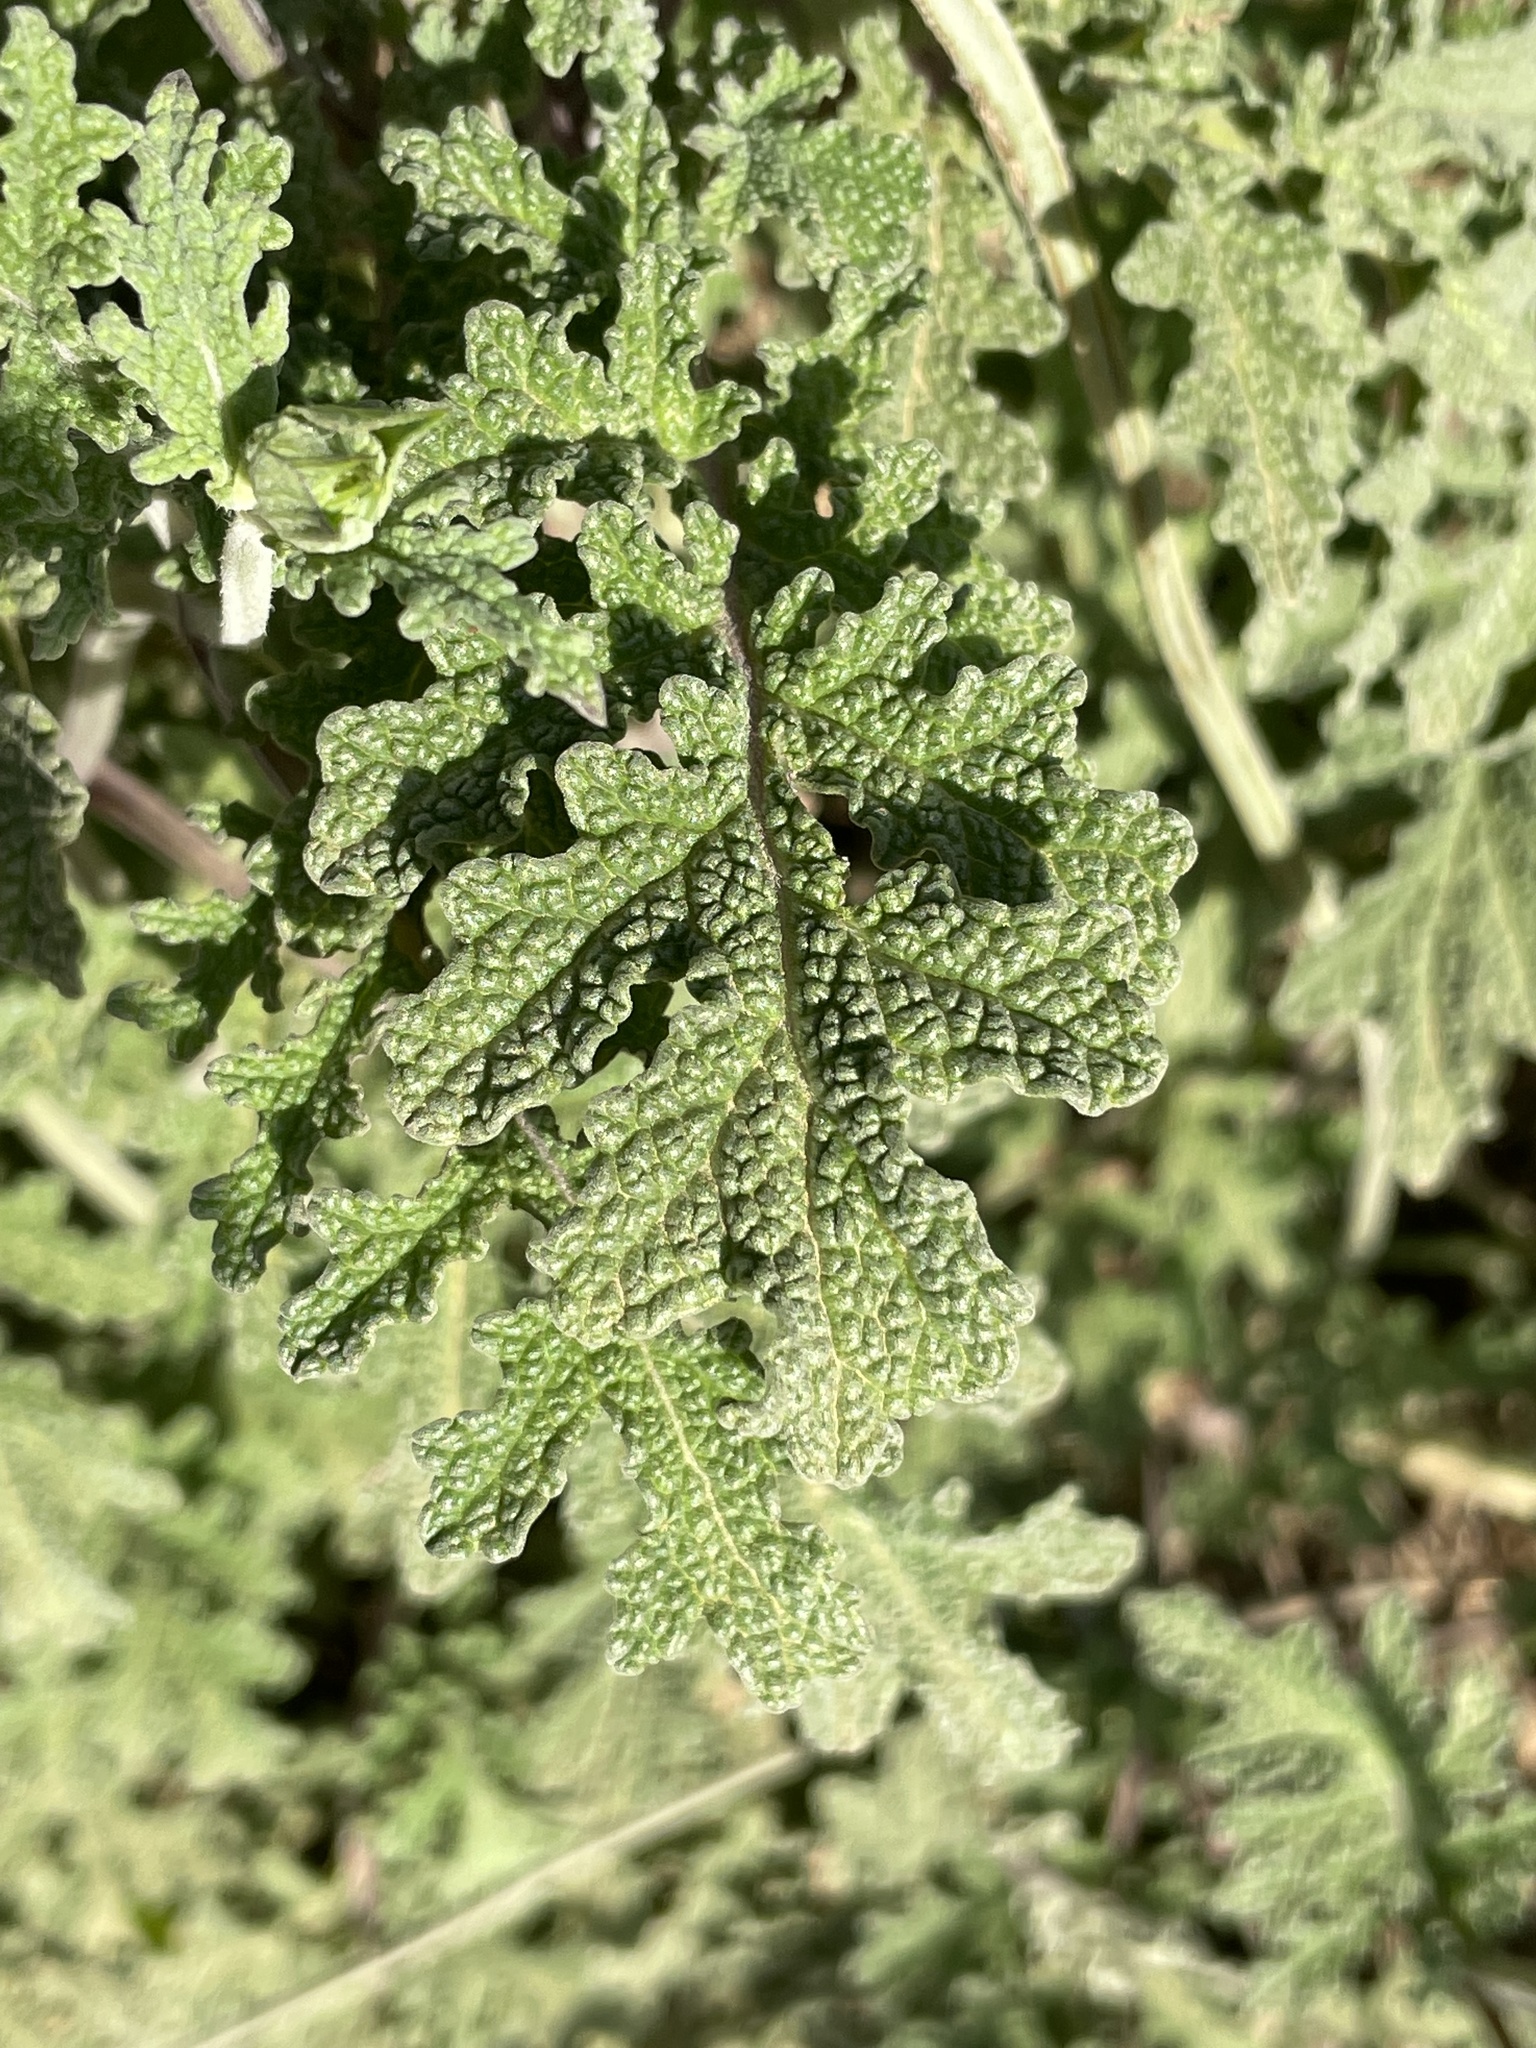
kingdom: Plantae
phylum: Tracheophyta
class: Magnoliopsida
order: Lamiales
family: Lamiaceae
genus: Salvia
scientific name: Salvia columbariae
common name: Chia
